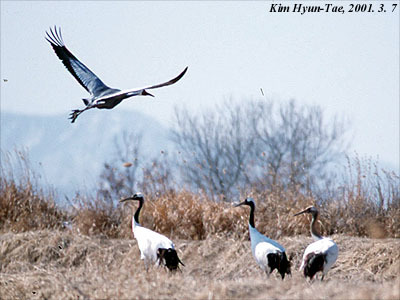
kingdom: Animalia
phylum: Chordata
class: Aves
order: Gruiformes
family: Gruidae
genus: Grus
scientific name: Grus japonensis
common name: Red-crowned crane
